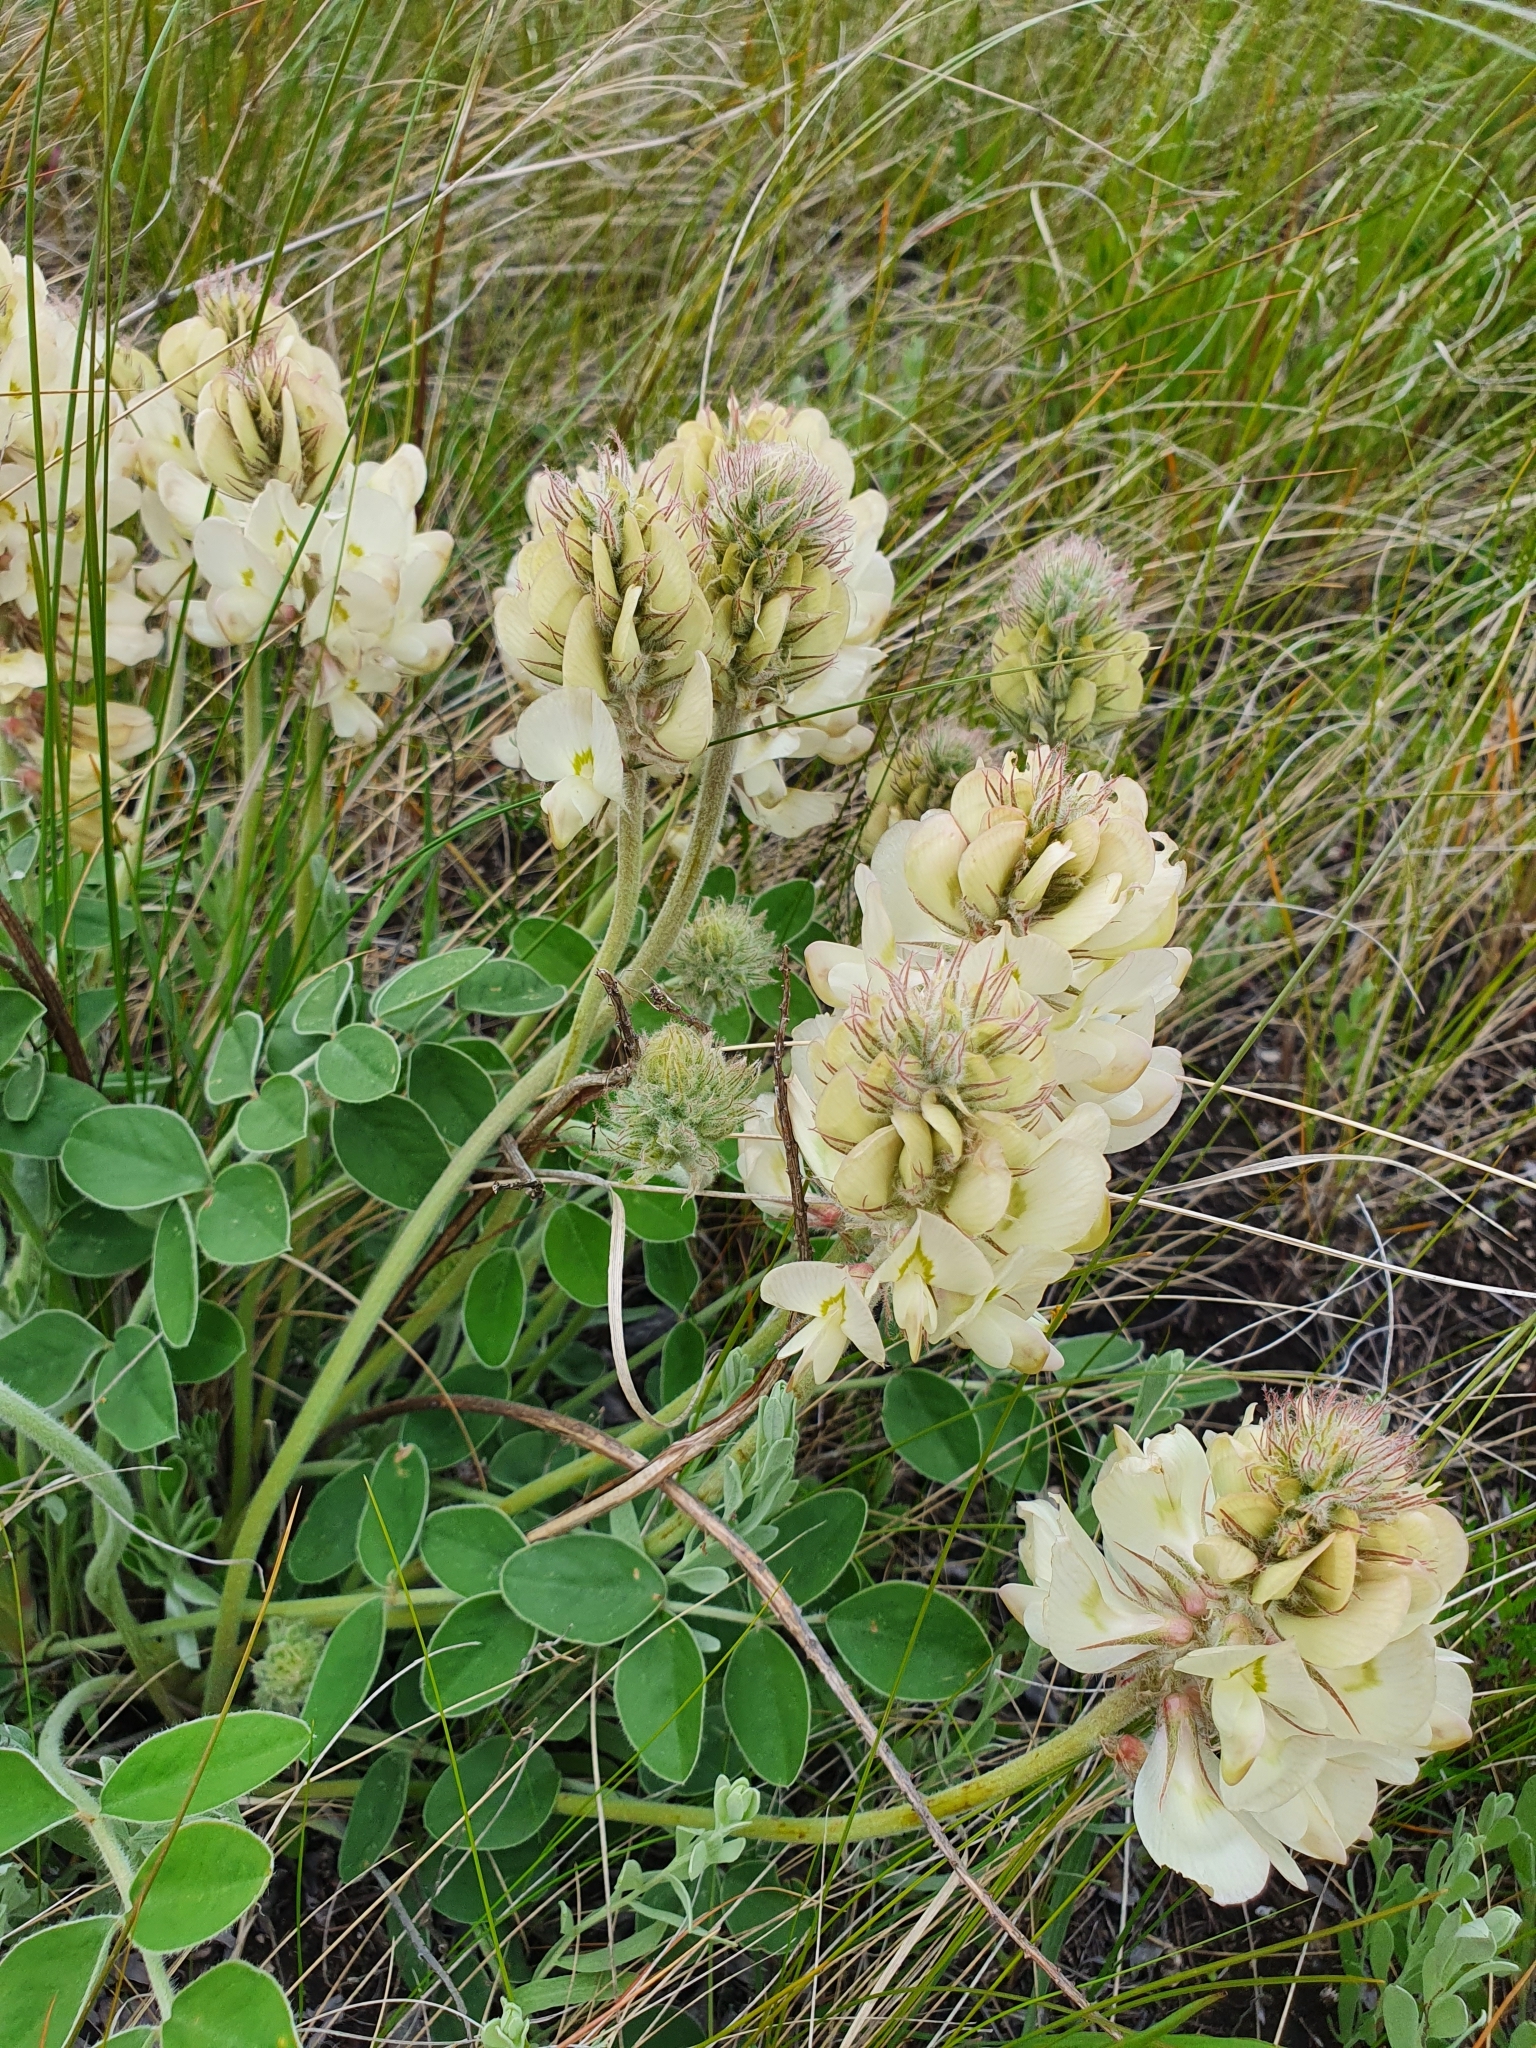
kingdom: Plantae
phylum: Tracheophyta
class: Magnoliopsida
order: Fabales
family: Fabaceae
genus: Hedysarum
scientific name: Hedysarum grandiflorum
